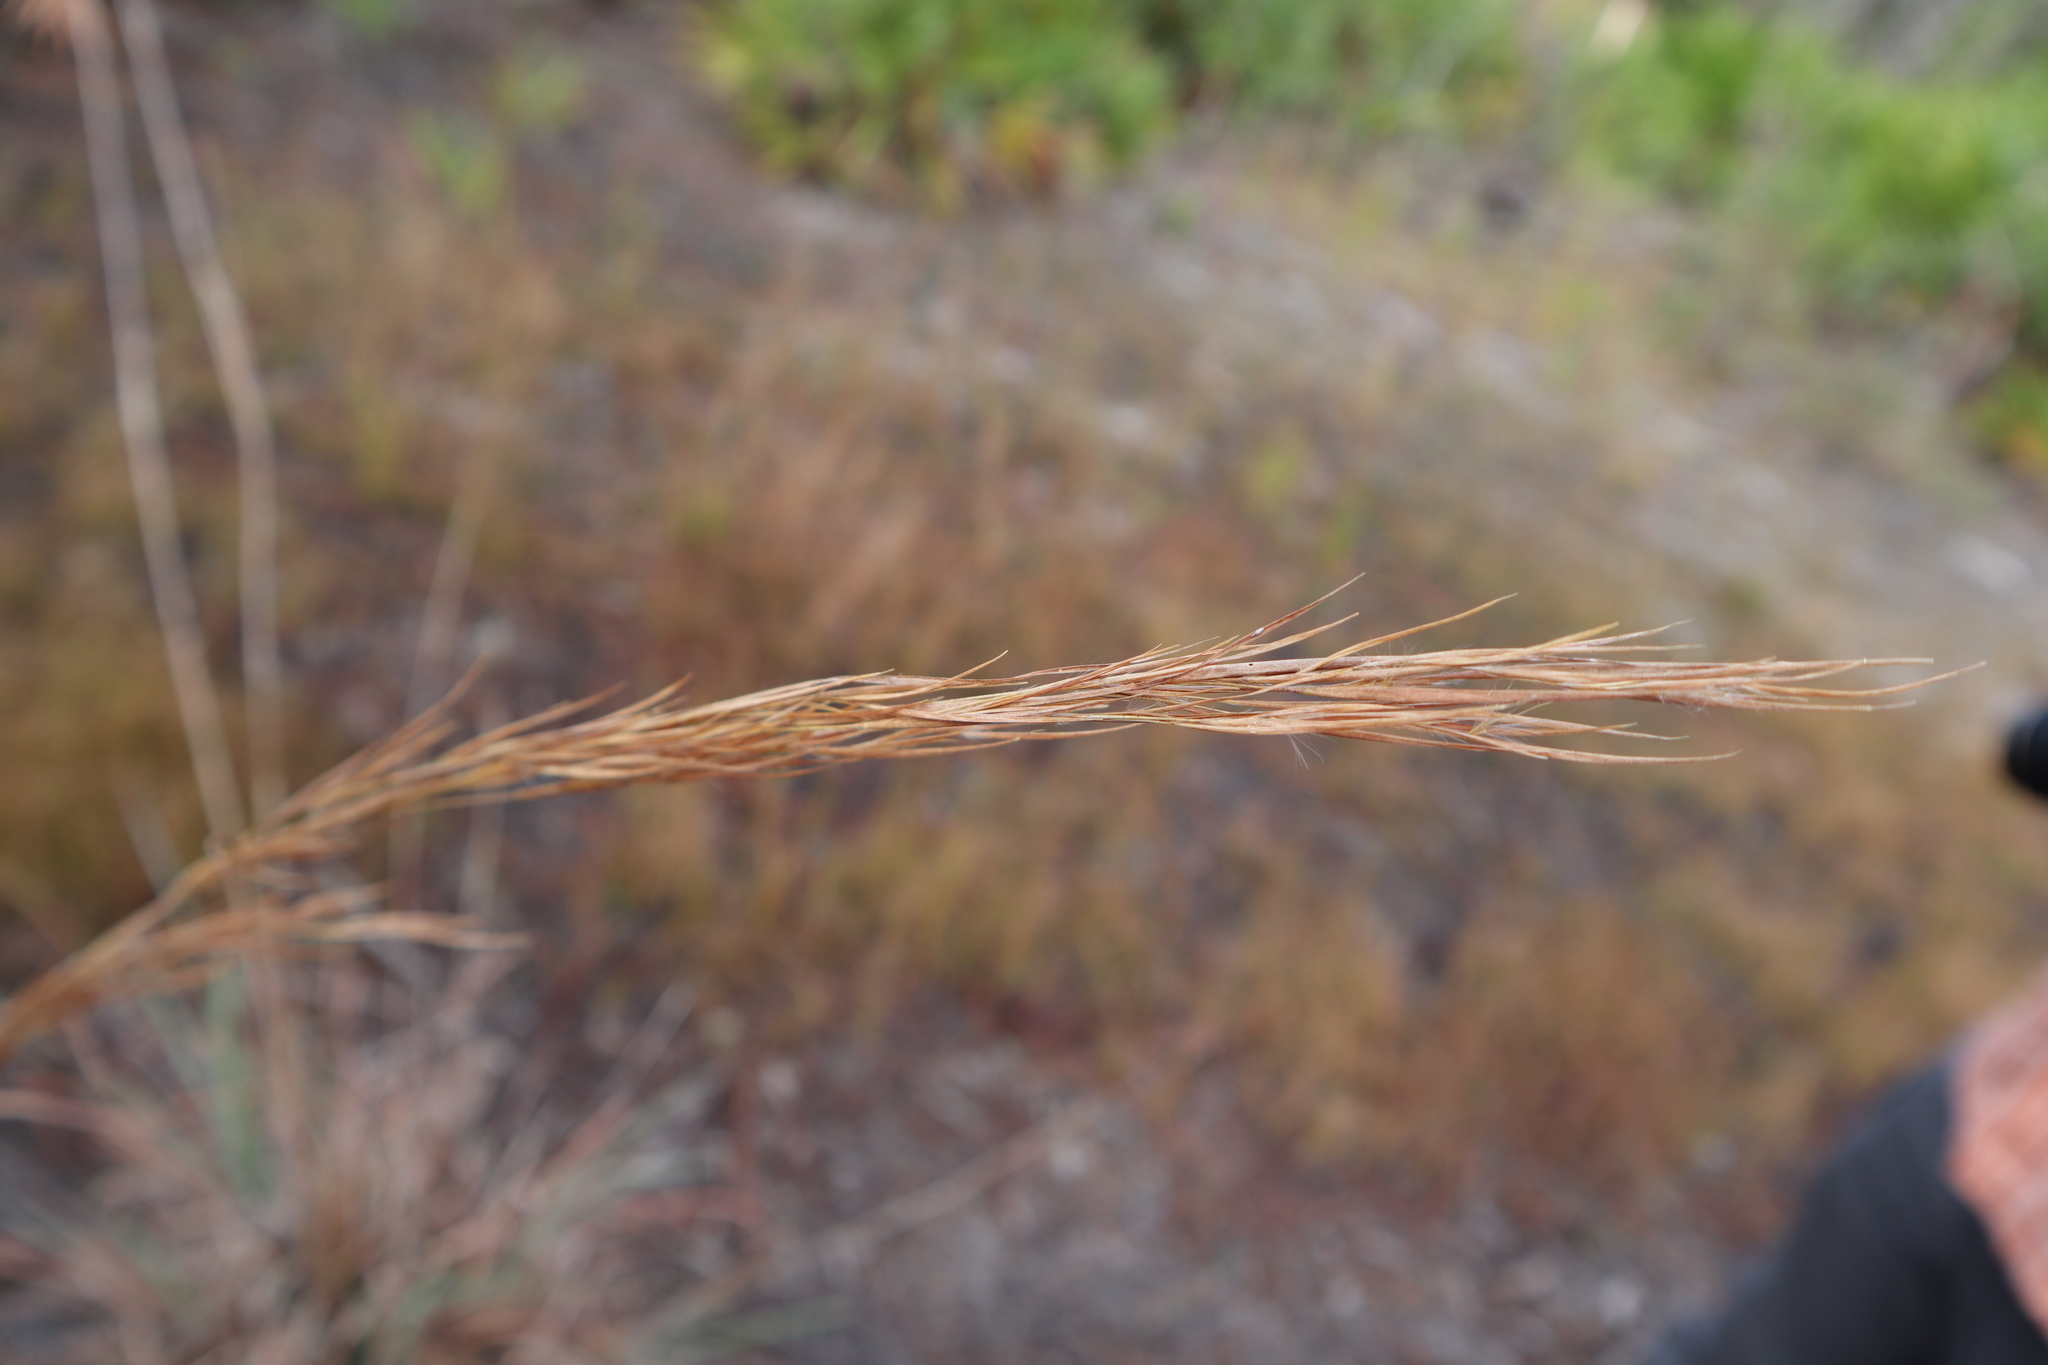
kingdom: Plantae
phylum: Tracheophyta
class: Liliopsida
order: Poales
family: Poaceae
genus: Andropogon
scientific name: Andropogon cretaceus
